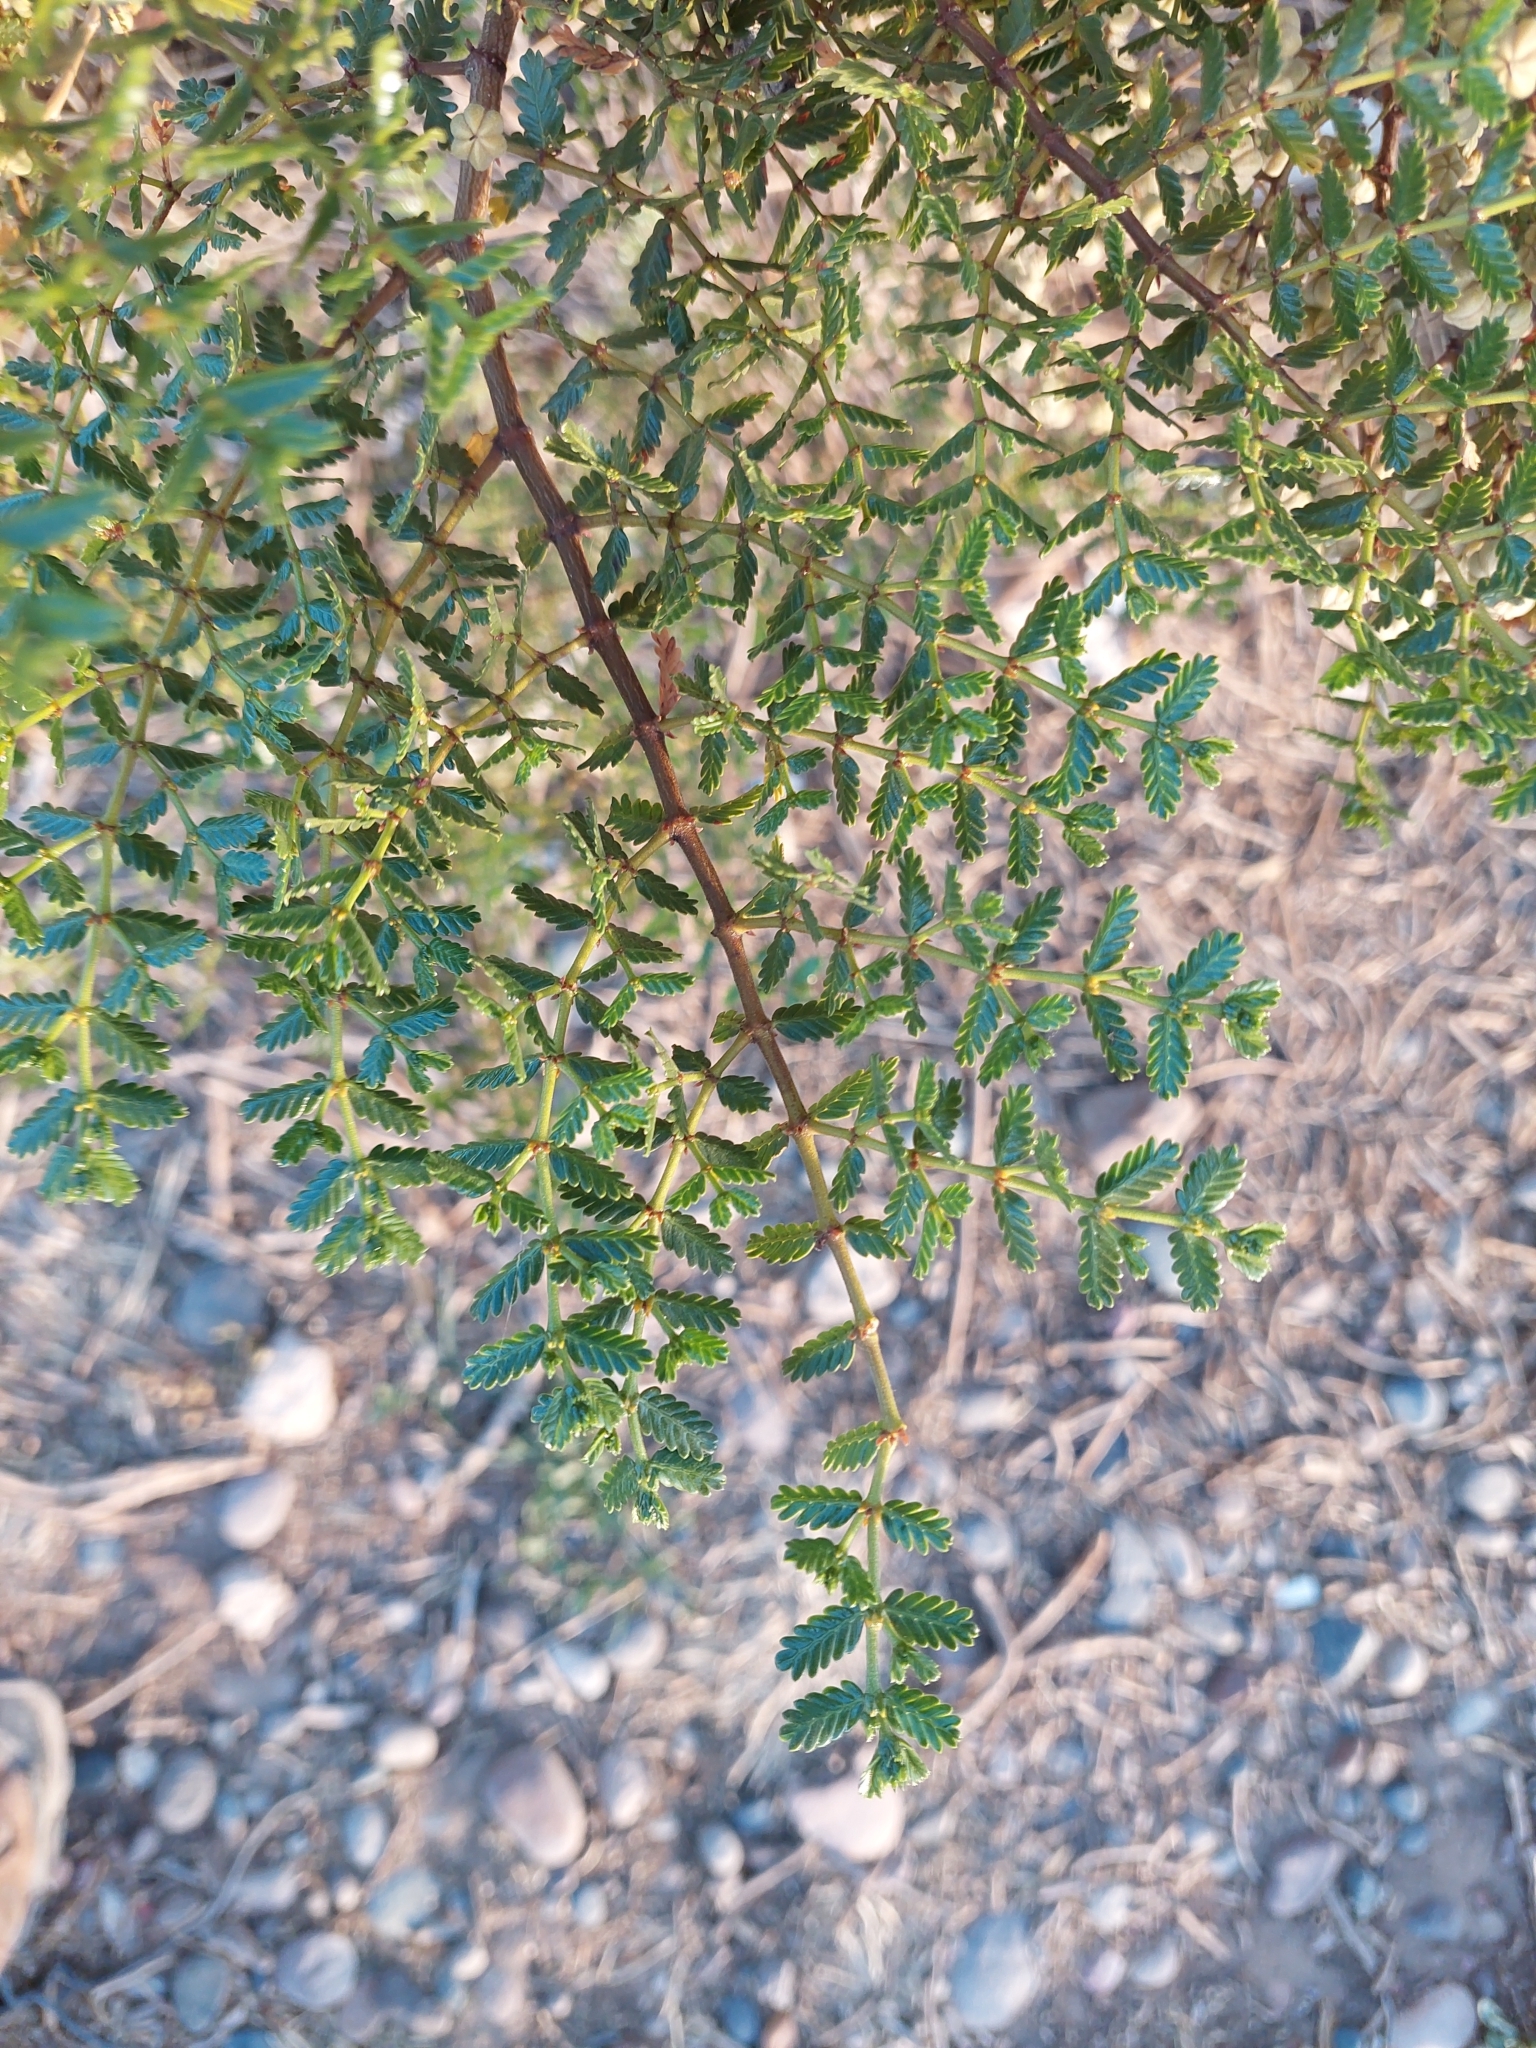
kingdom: Plantae
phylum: Tracheophyta
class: Magnoliopsida
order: Zygophyllales
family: Zygophyllaceae
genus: Larrea
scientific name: Larrea nitida
